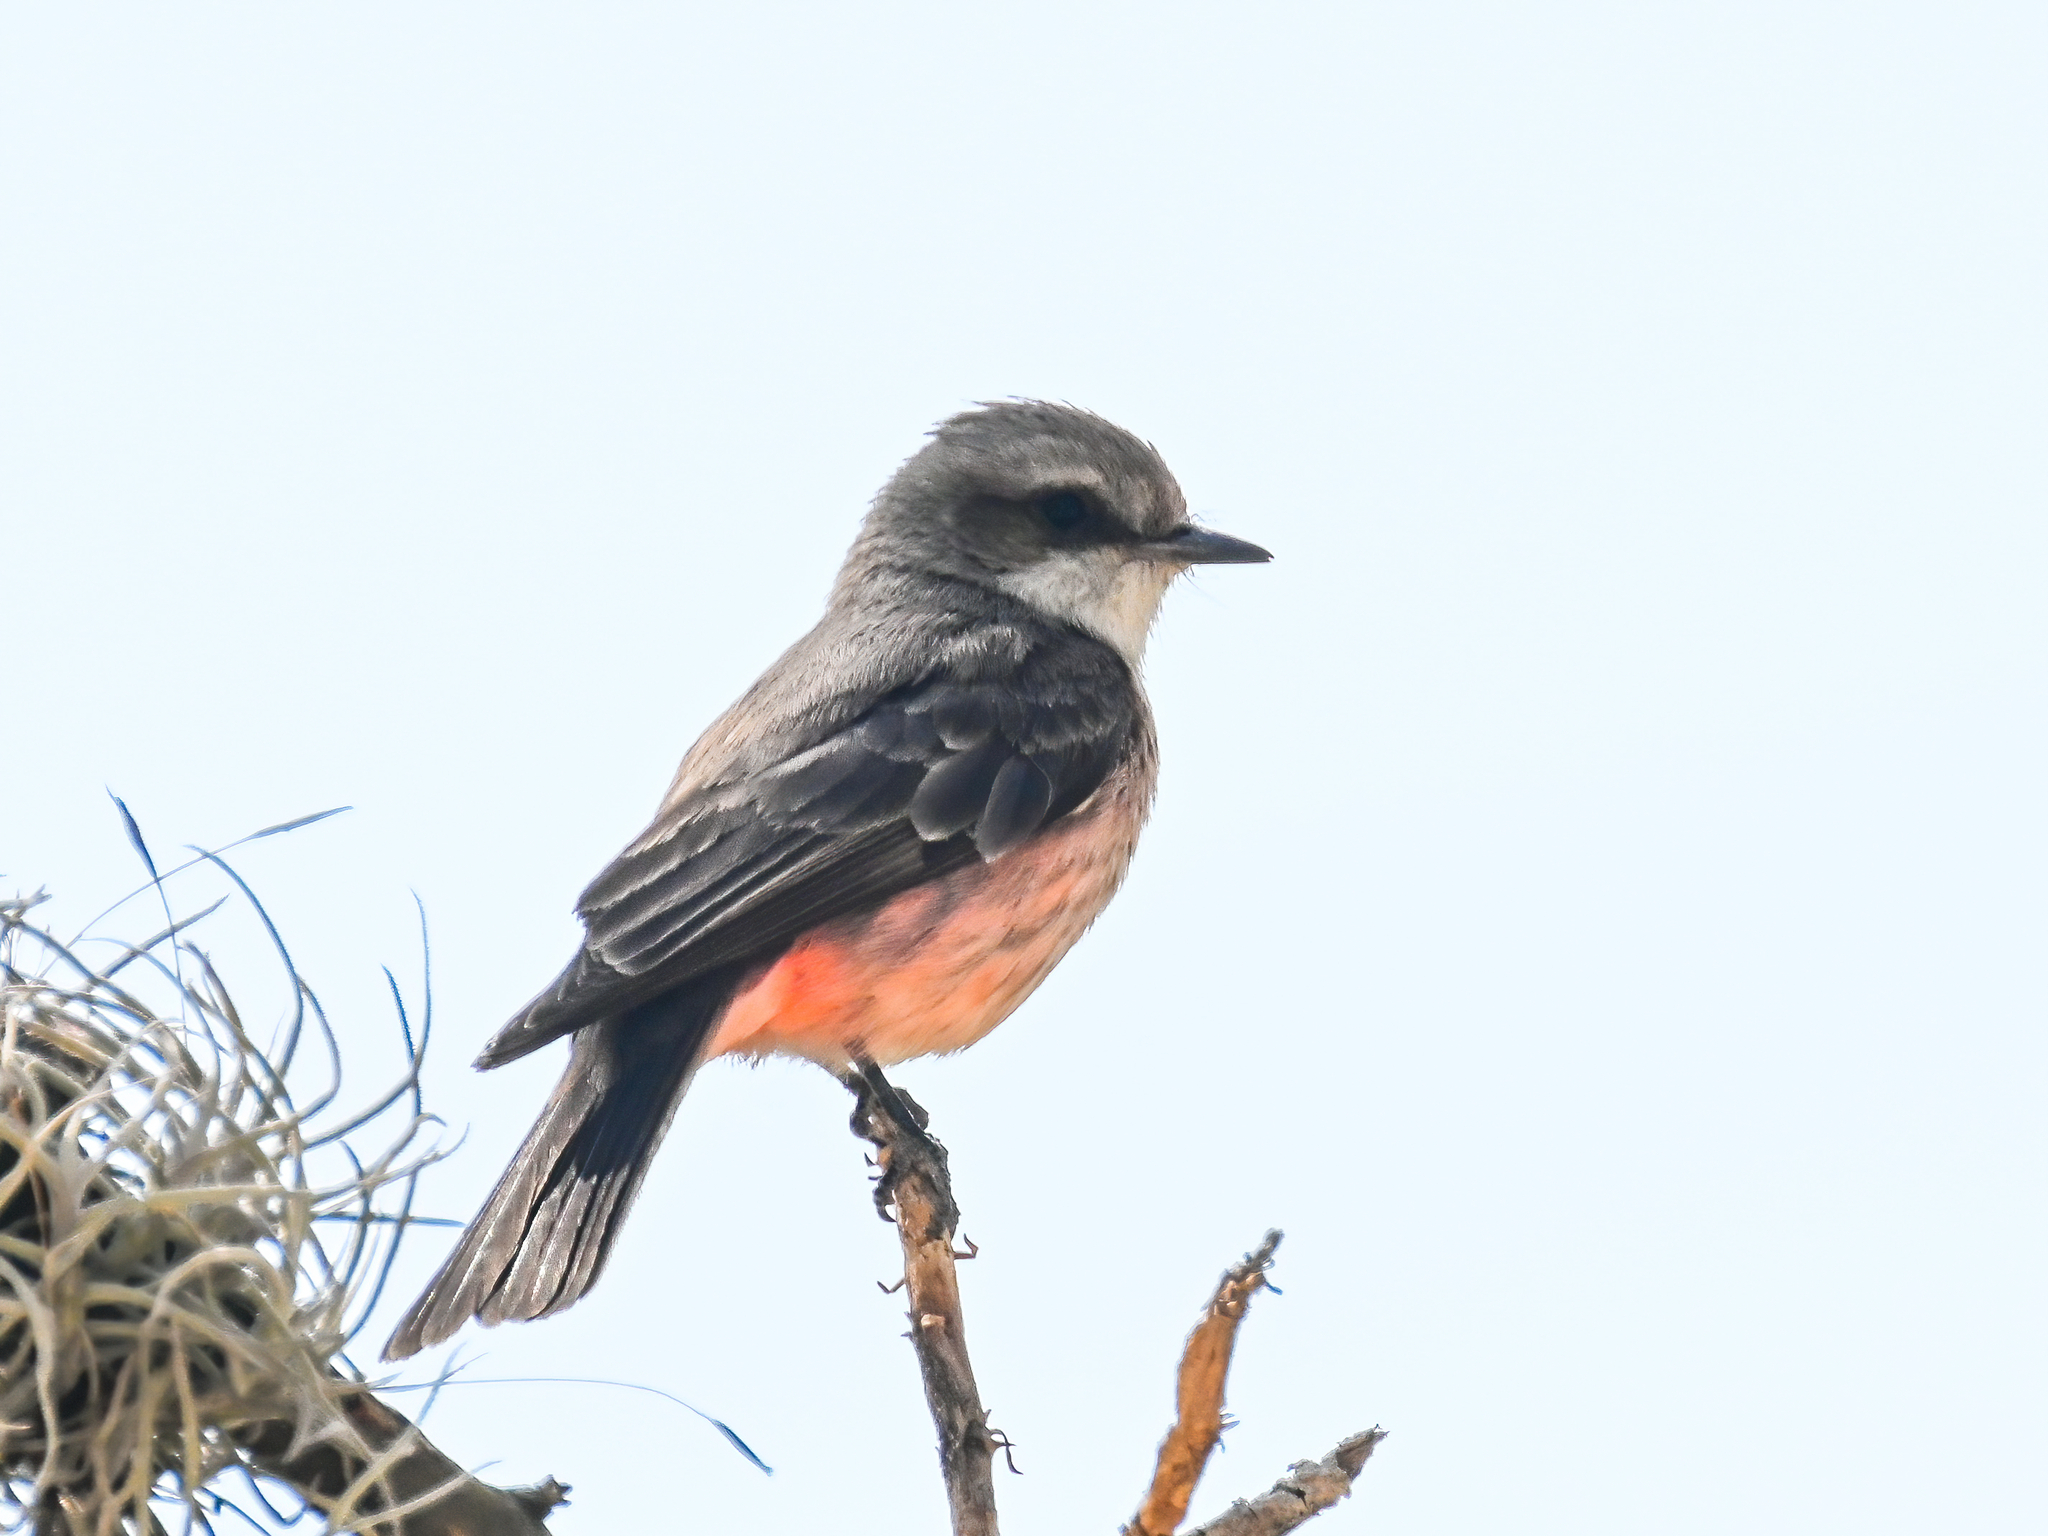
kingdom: Animalia
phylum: Chordata
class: Aves
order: Passeriformes
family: Tyrannidae
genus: Pyrocephalus
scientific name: Pyrocephalus rubinus
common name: Vermilion flycatcher
